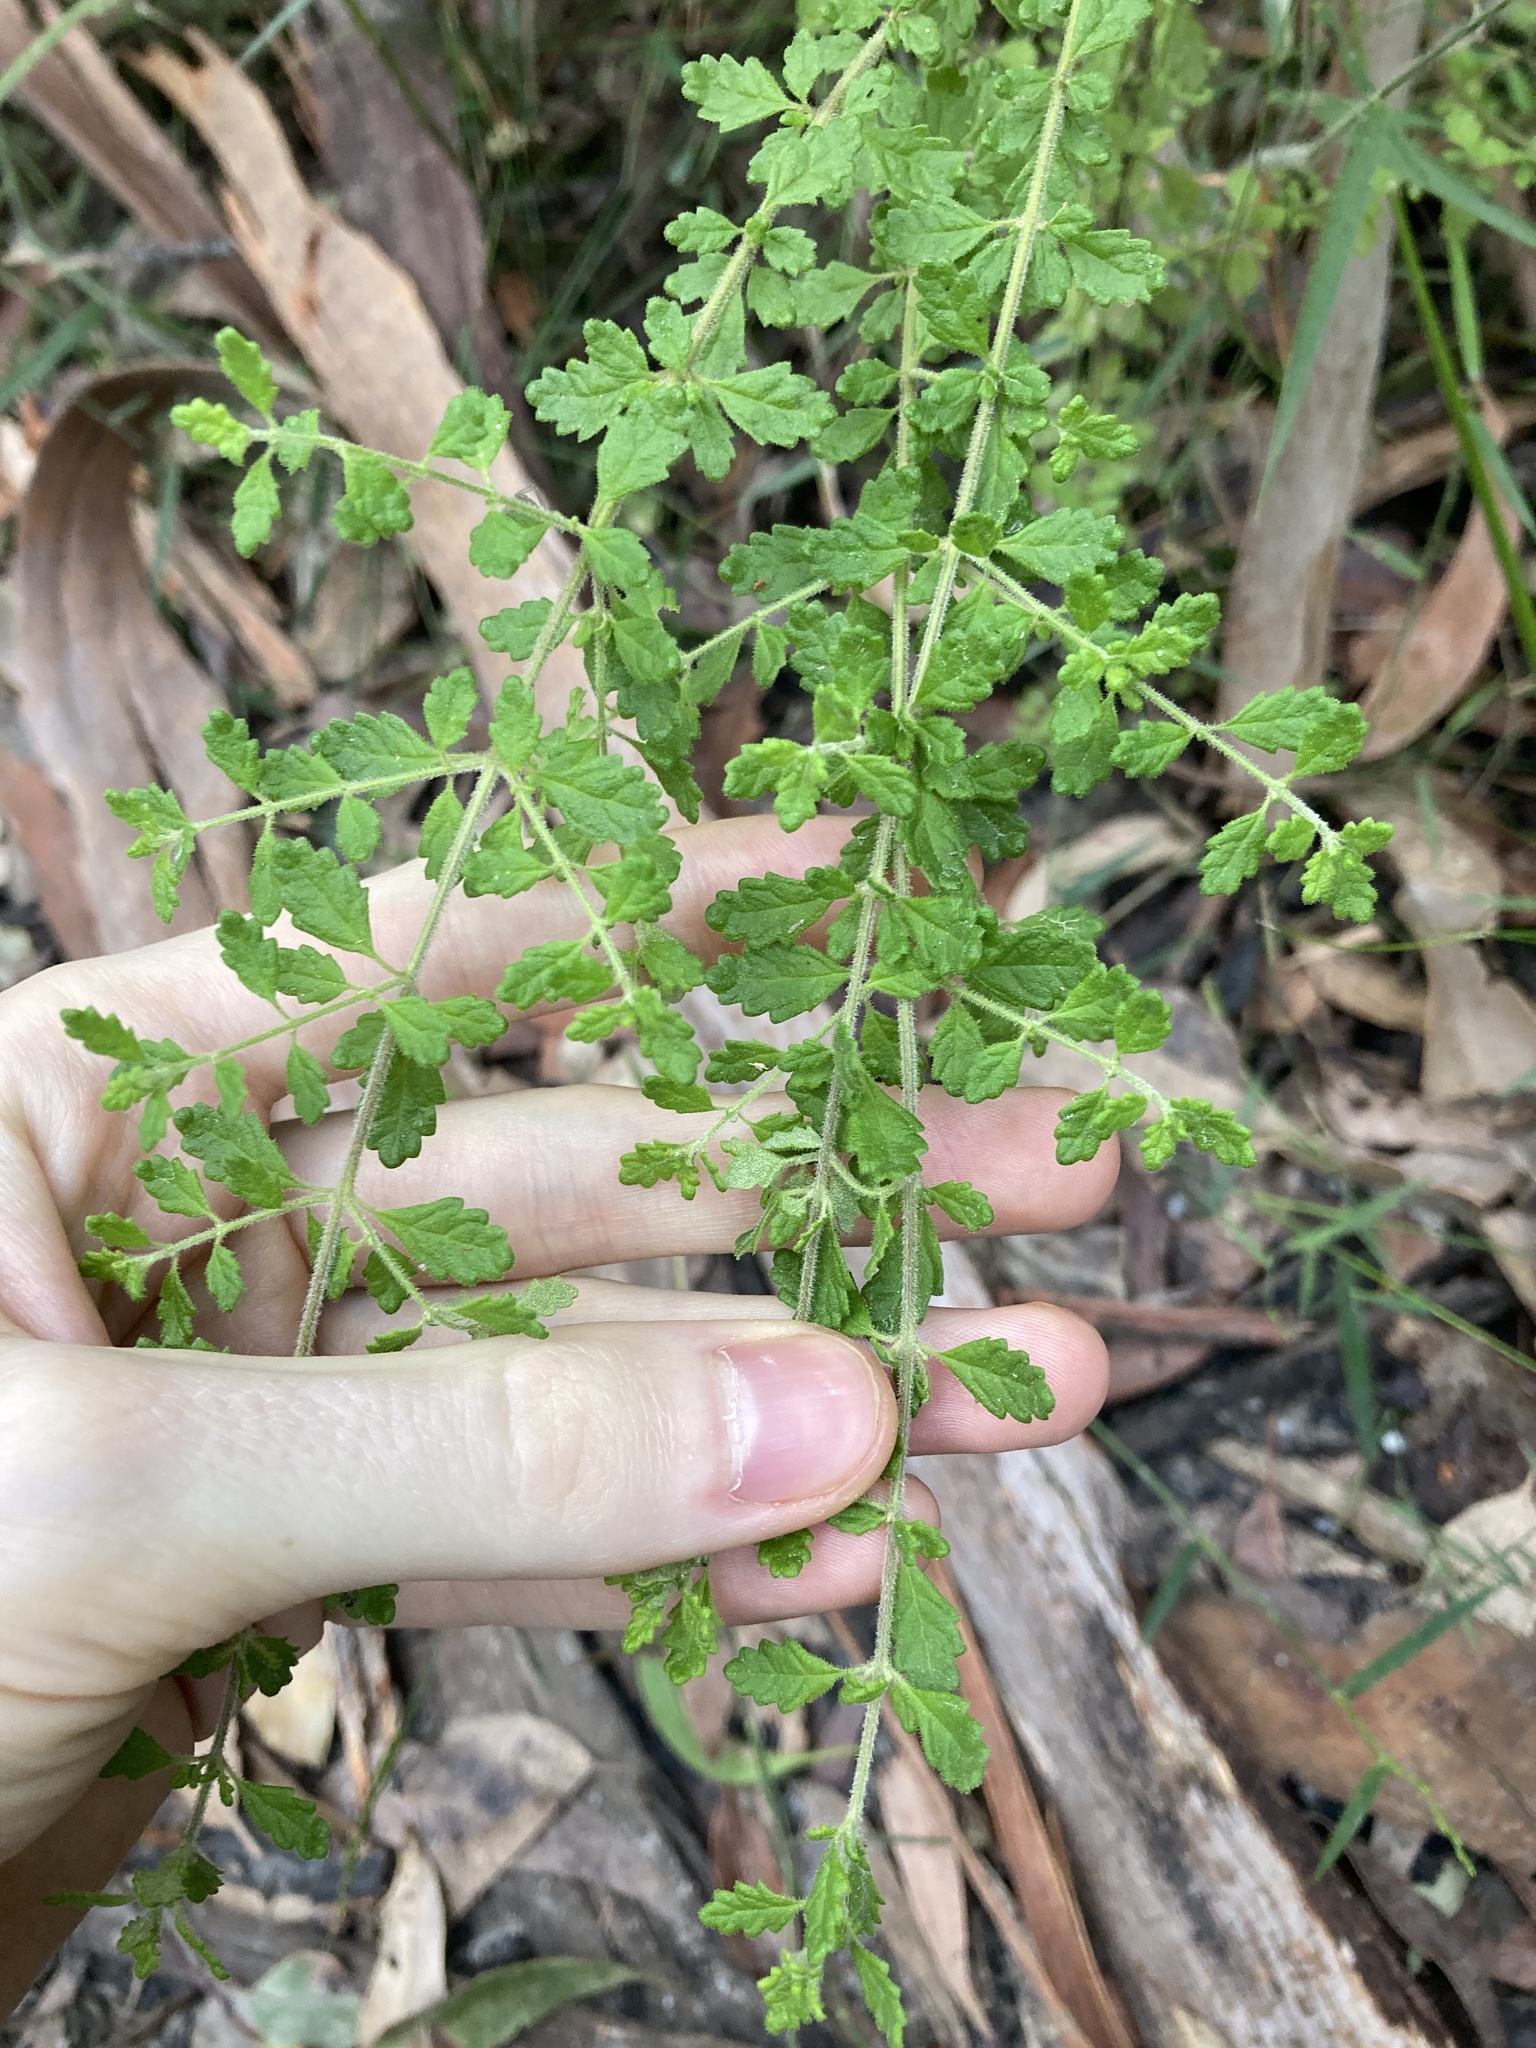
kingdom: Plantae
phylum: Tracheophyta
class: Magnoliopsida
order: Lamiales
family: Lamiaceae
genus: Prostanthera
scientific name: Prostanthera incana
